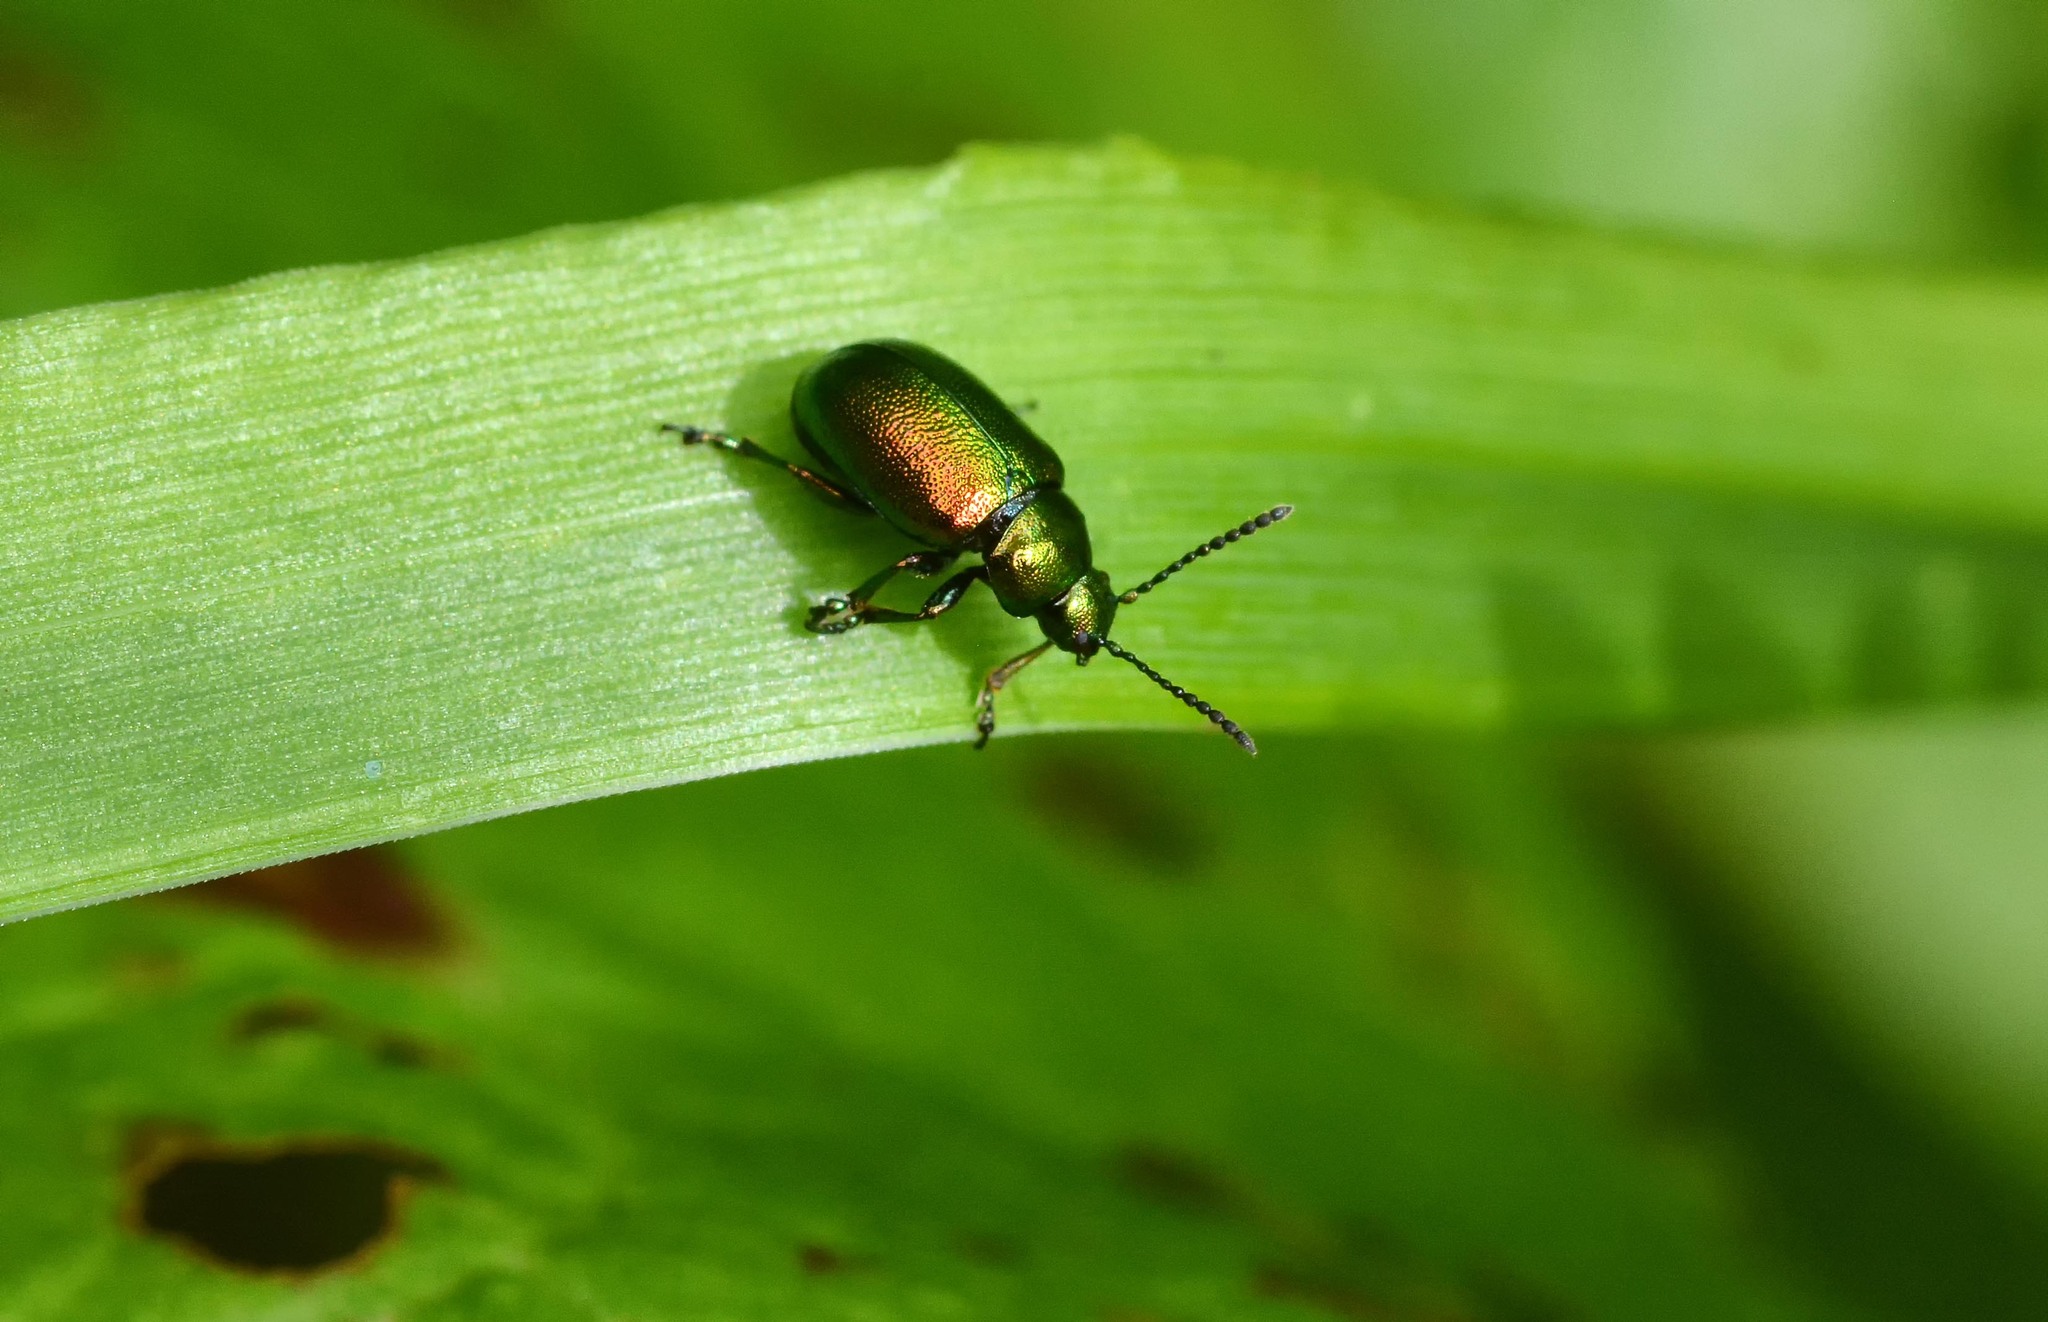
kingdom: Animalia
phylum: Arthropoda
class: Insecta
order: Coleoptera
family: Chrysomelidae
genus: Gastrophysa
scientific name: Gastrophysa viridula
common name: Green dock beetle
